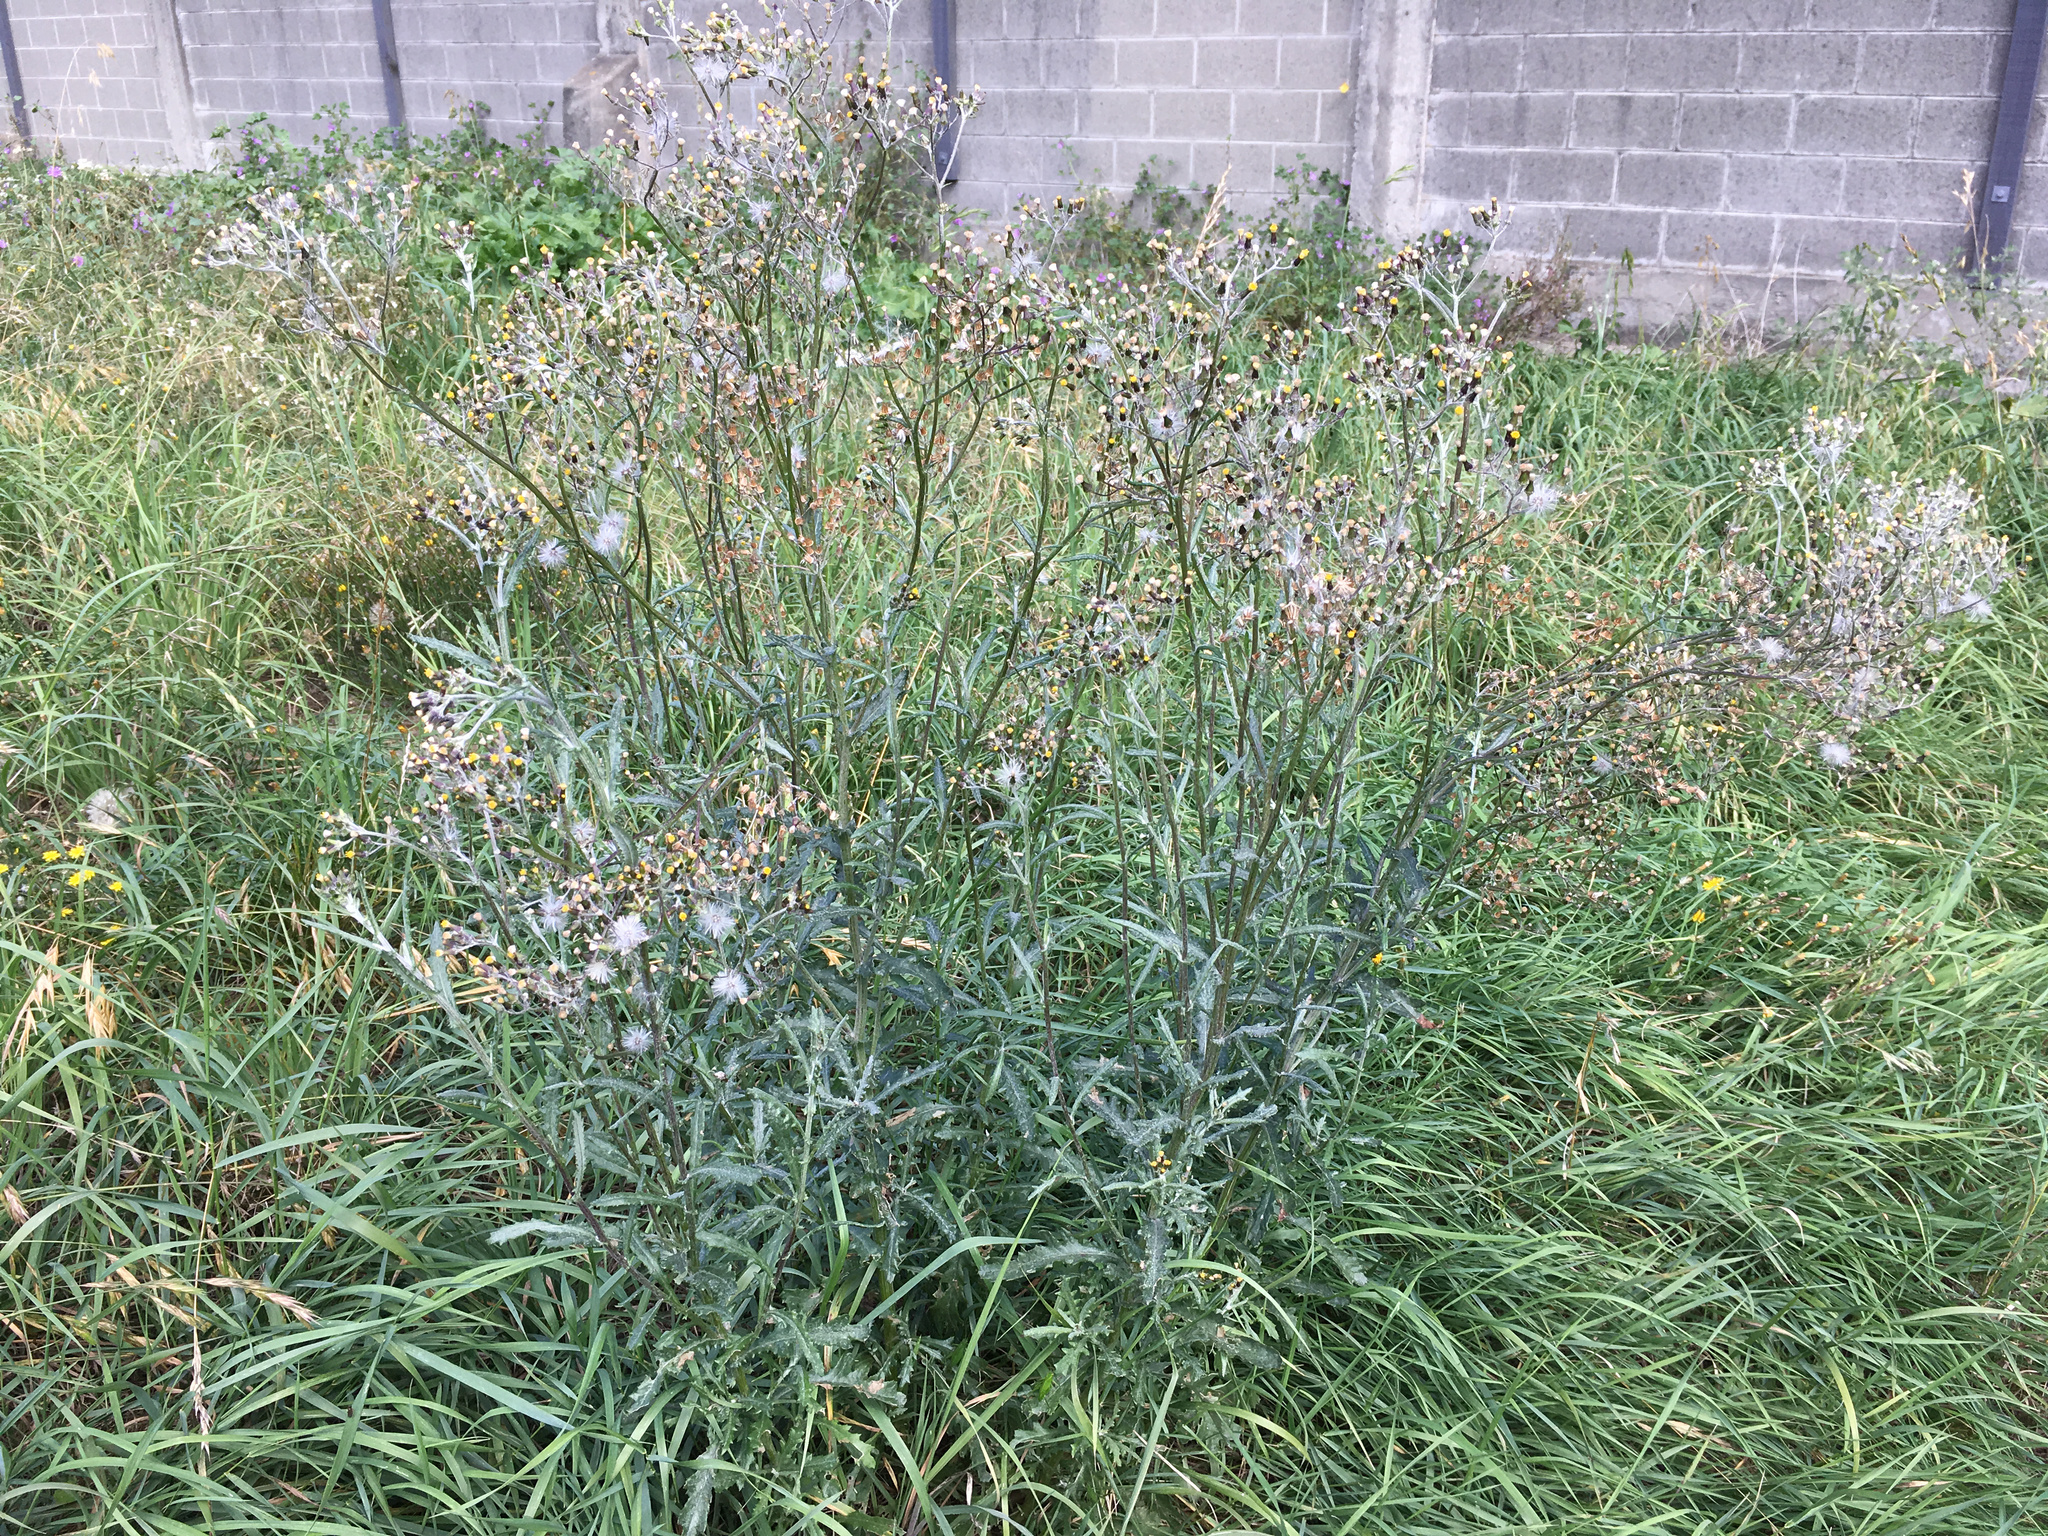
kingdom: Plantae
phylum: Tracheophyta
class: Magnoliopsida
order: Asterales
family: Asteraceae
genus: Senecio
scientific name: Senecio glomeratus
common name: Cutleaf burnweed
